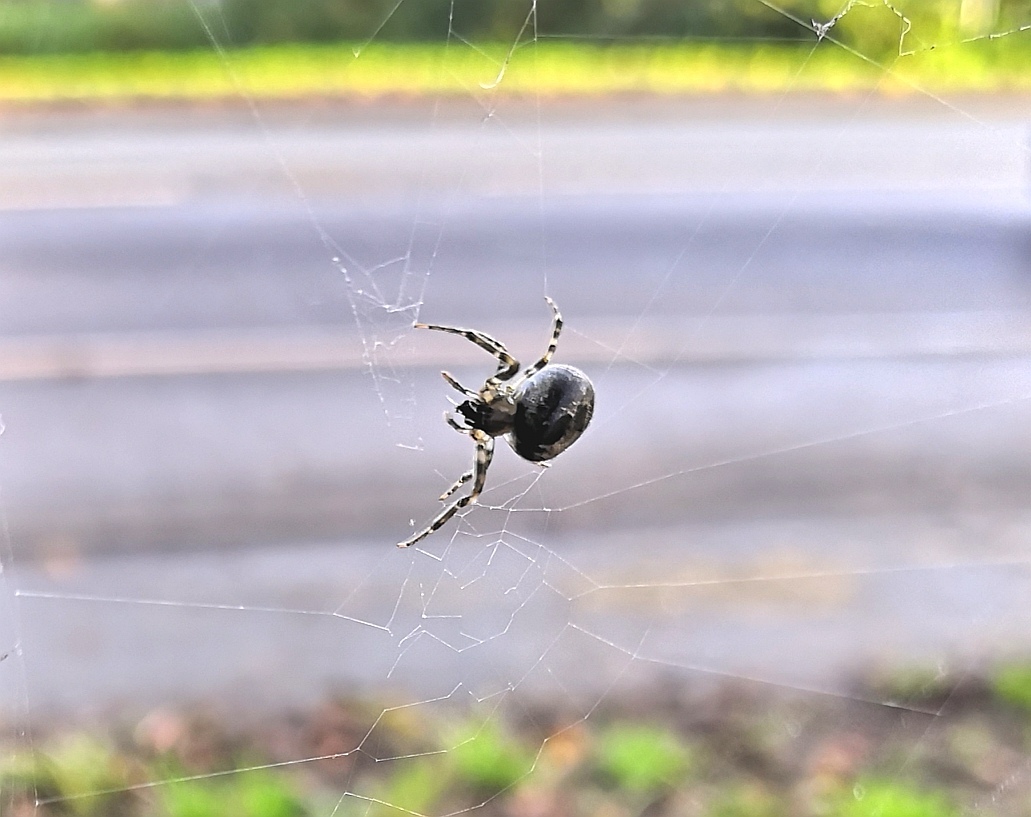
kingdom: Animalia
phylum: Arthropoda
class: Arachnida
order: Araneae
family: Araneidae
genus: Zygiella
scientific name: Zygiella x-notata
